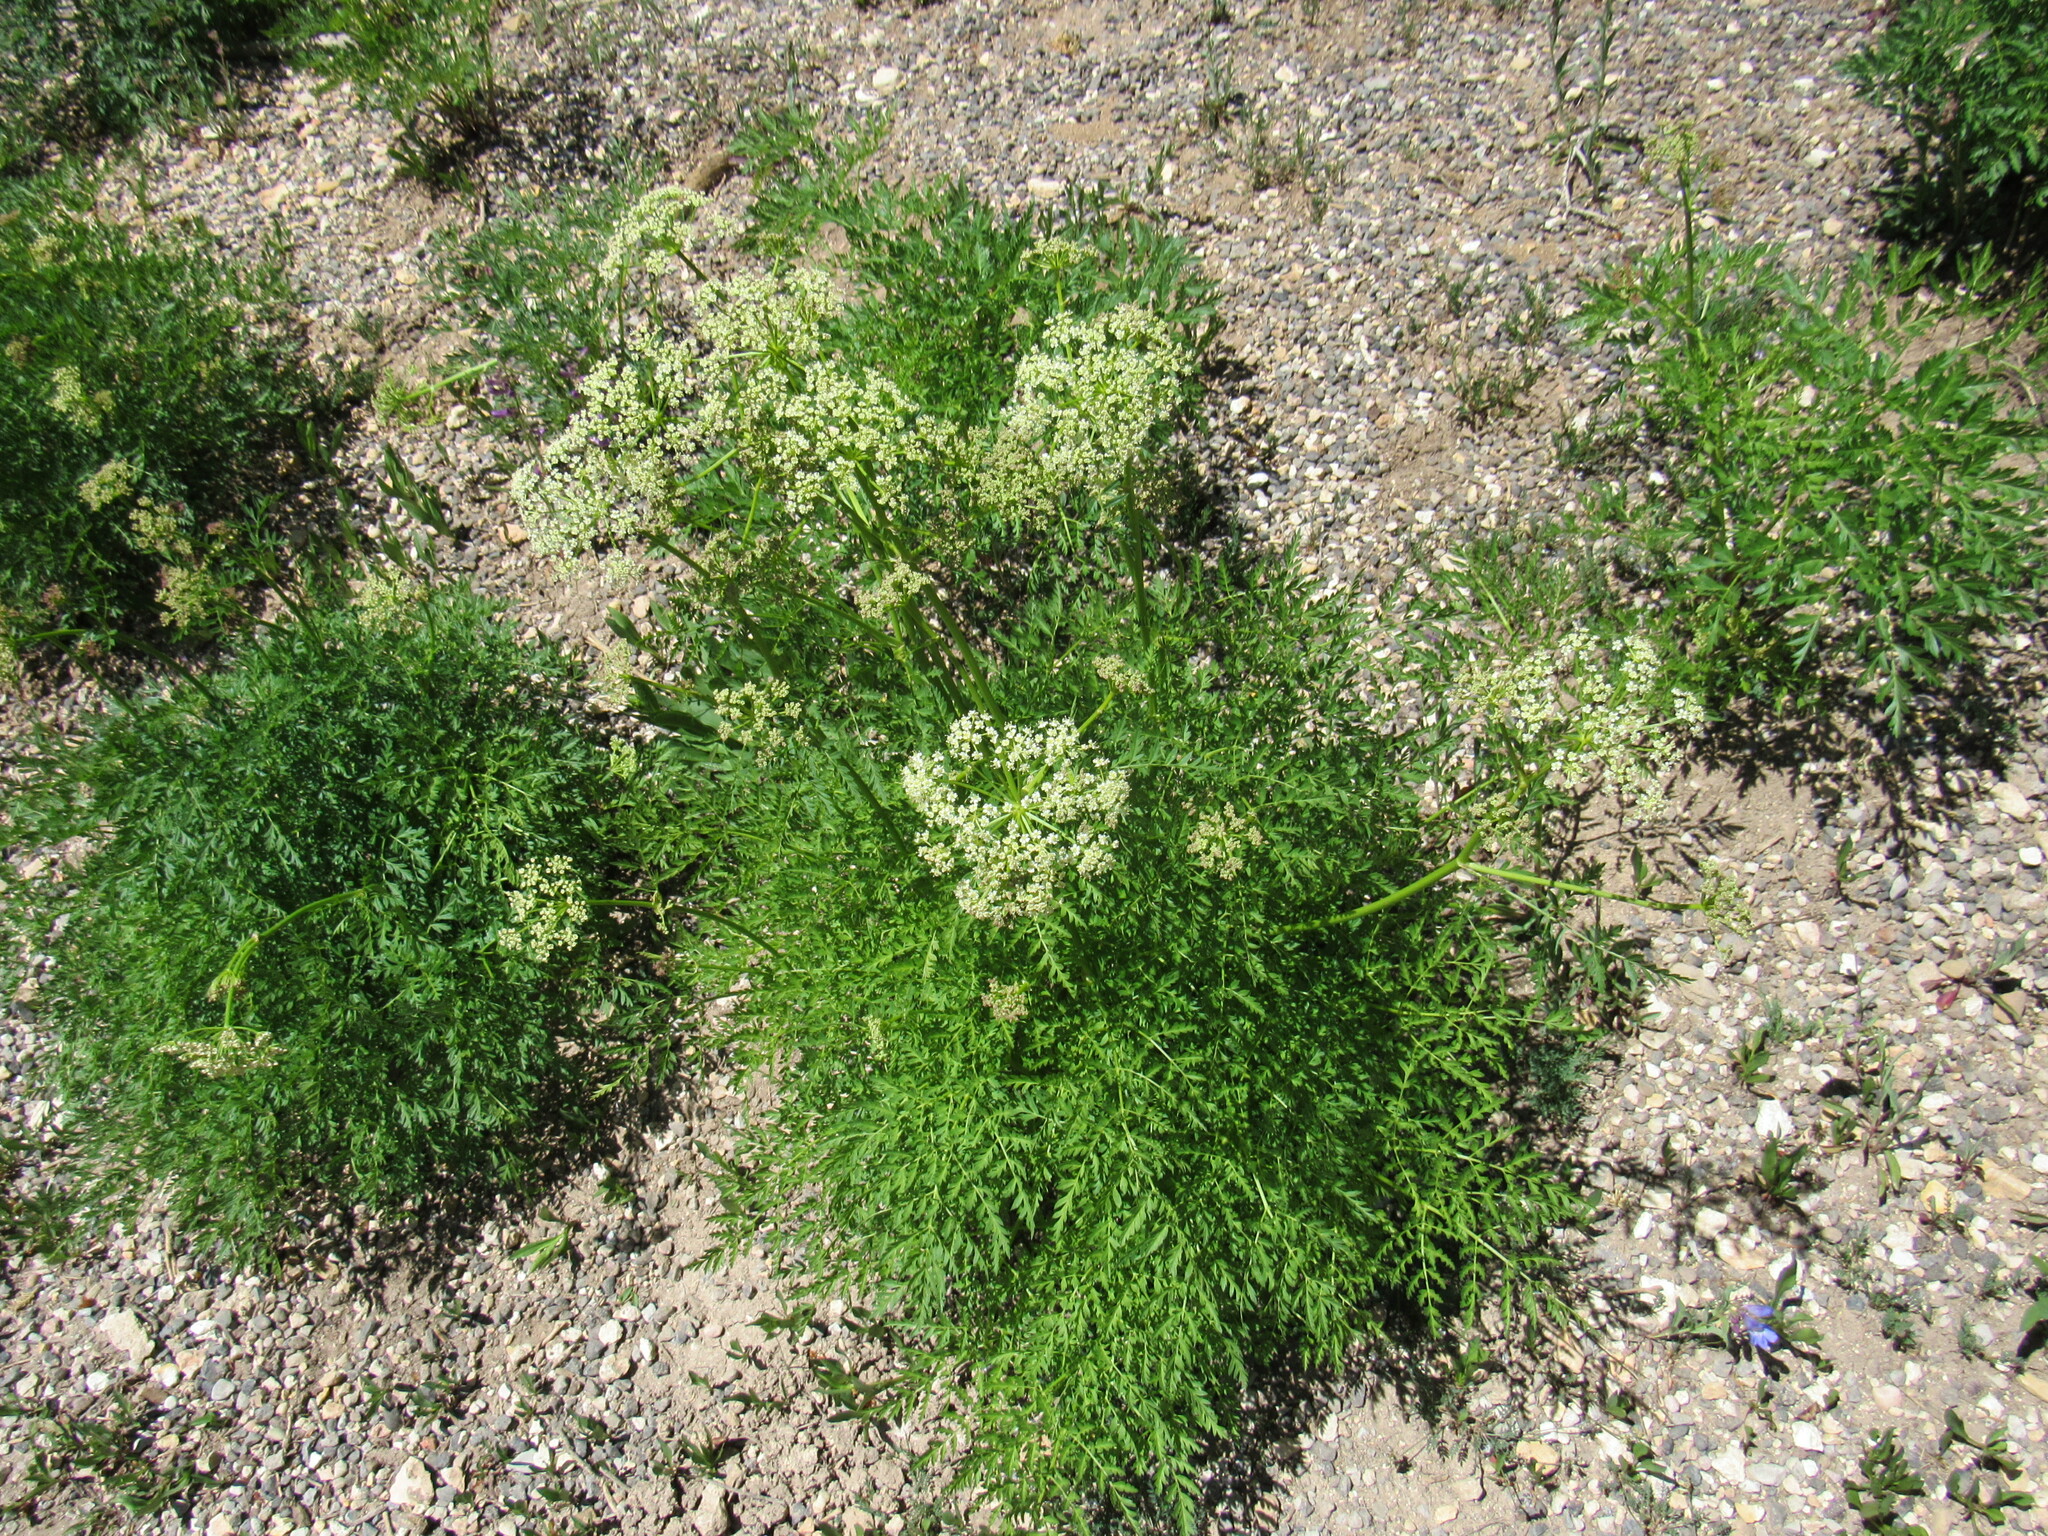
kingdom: Plantae
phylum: Tracheophyta
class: Magnoliopsida
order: Apiales
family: Apiaceae
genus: Ligusticum
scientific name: Ligusticum porteri
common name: Mountain lovage
